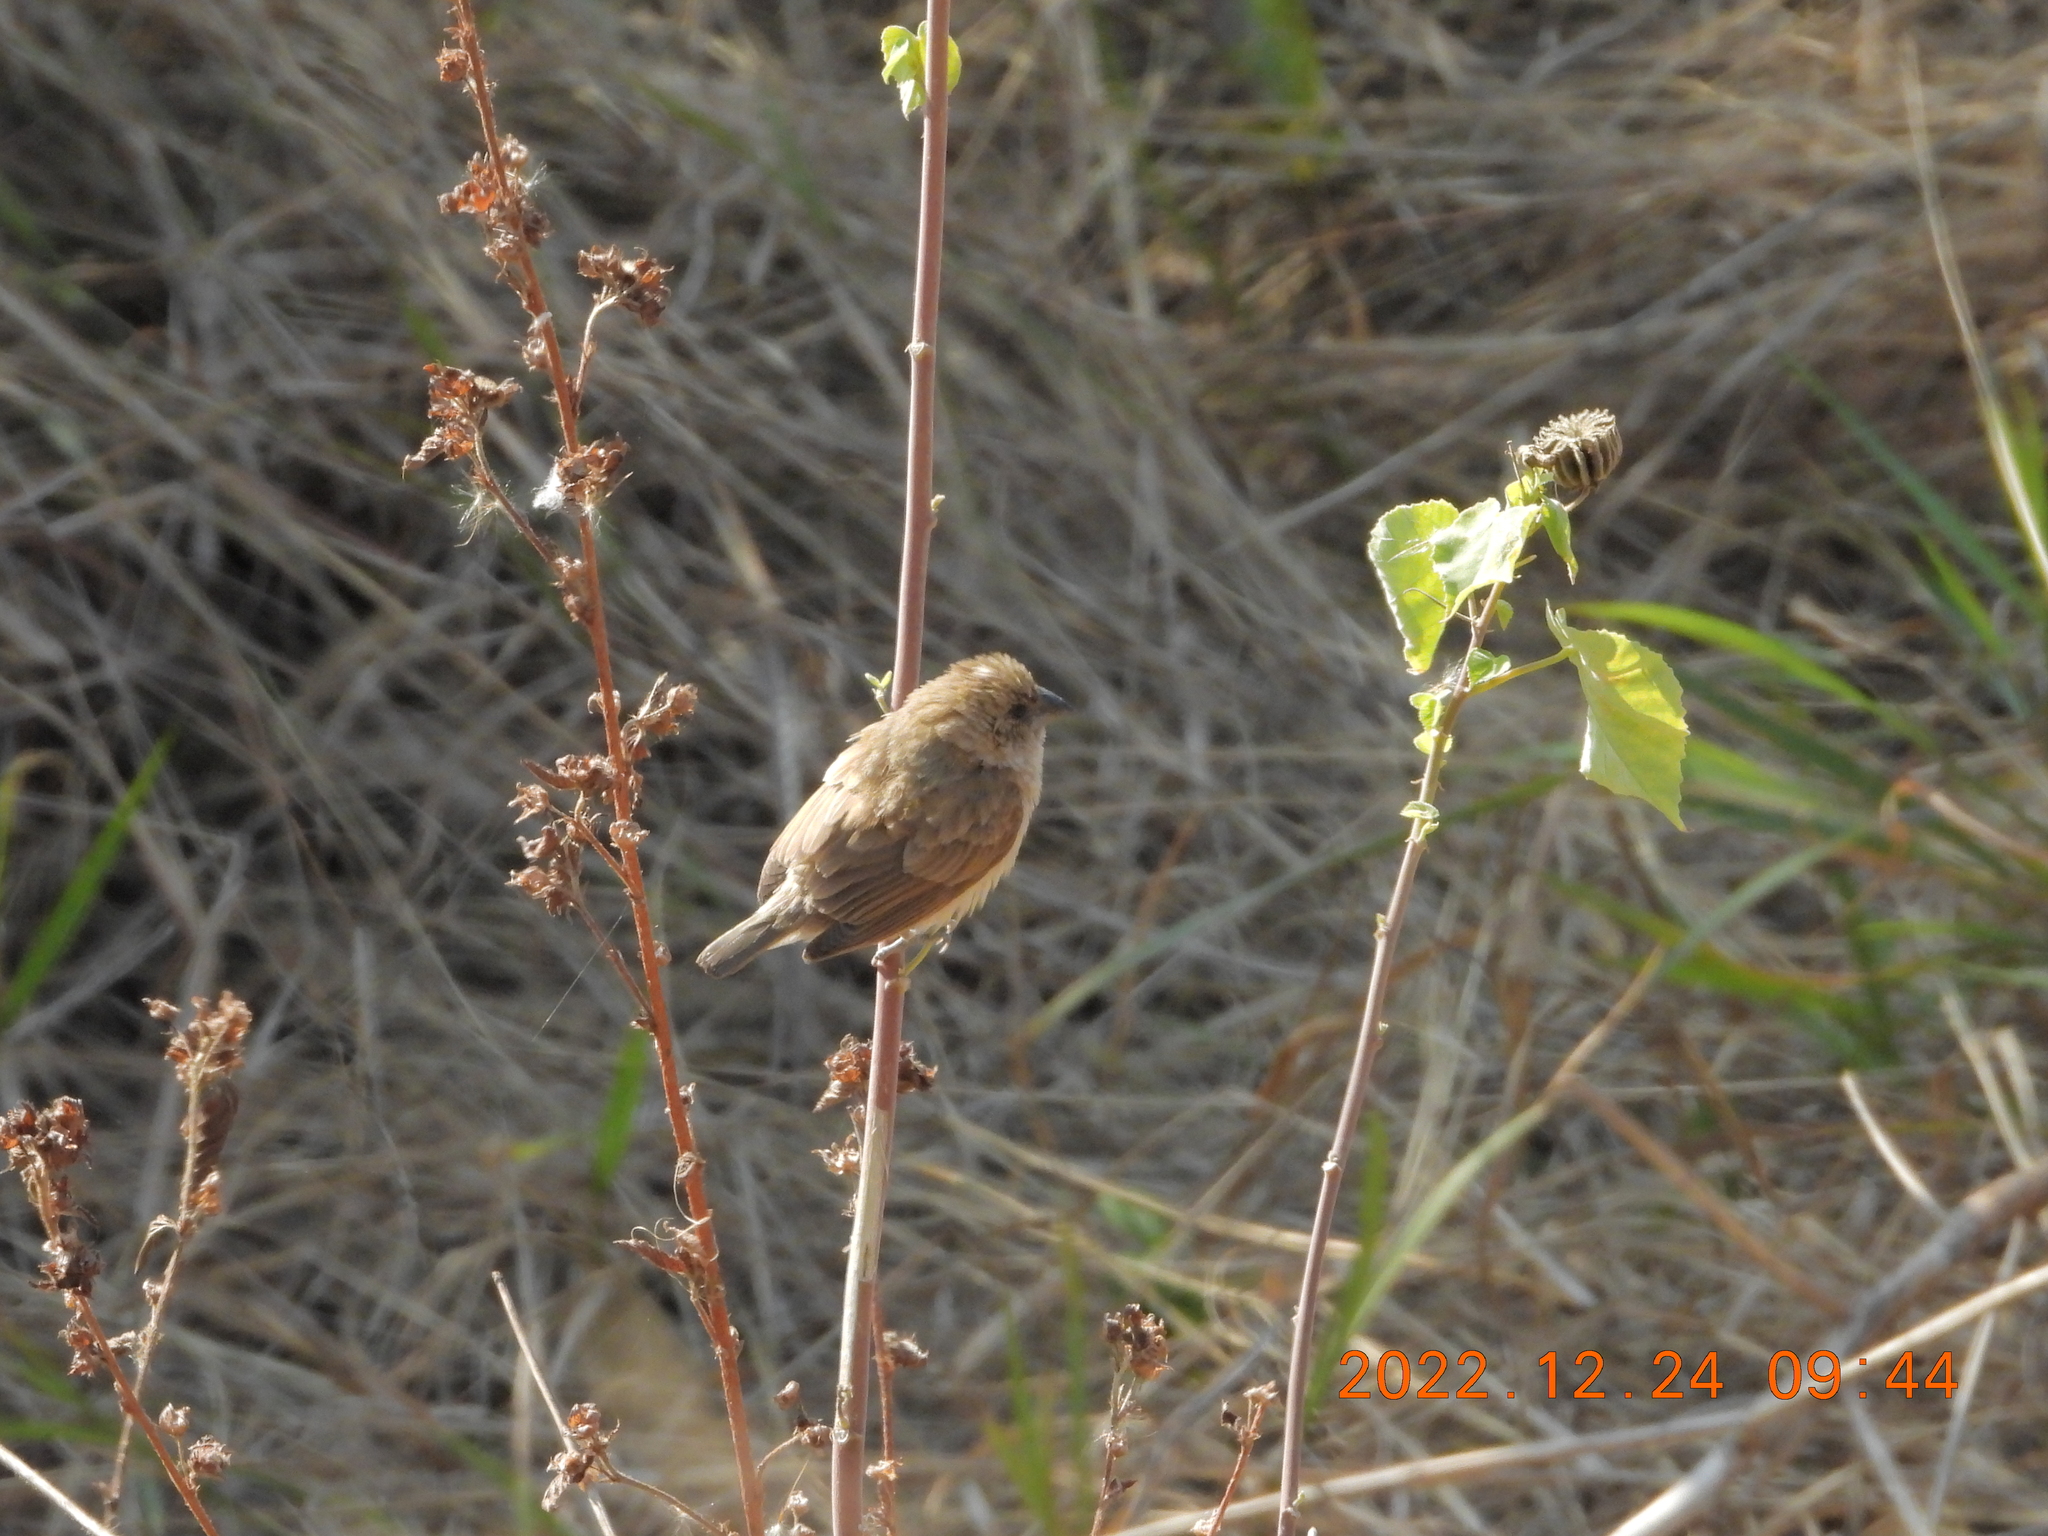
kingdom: Animalia
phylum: Chordata
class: Aves
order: Passeriformes
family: Estrildidae
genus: Lonchura
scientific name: Lonchura punctulata
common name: Scaly-breasted munia
